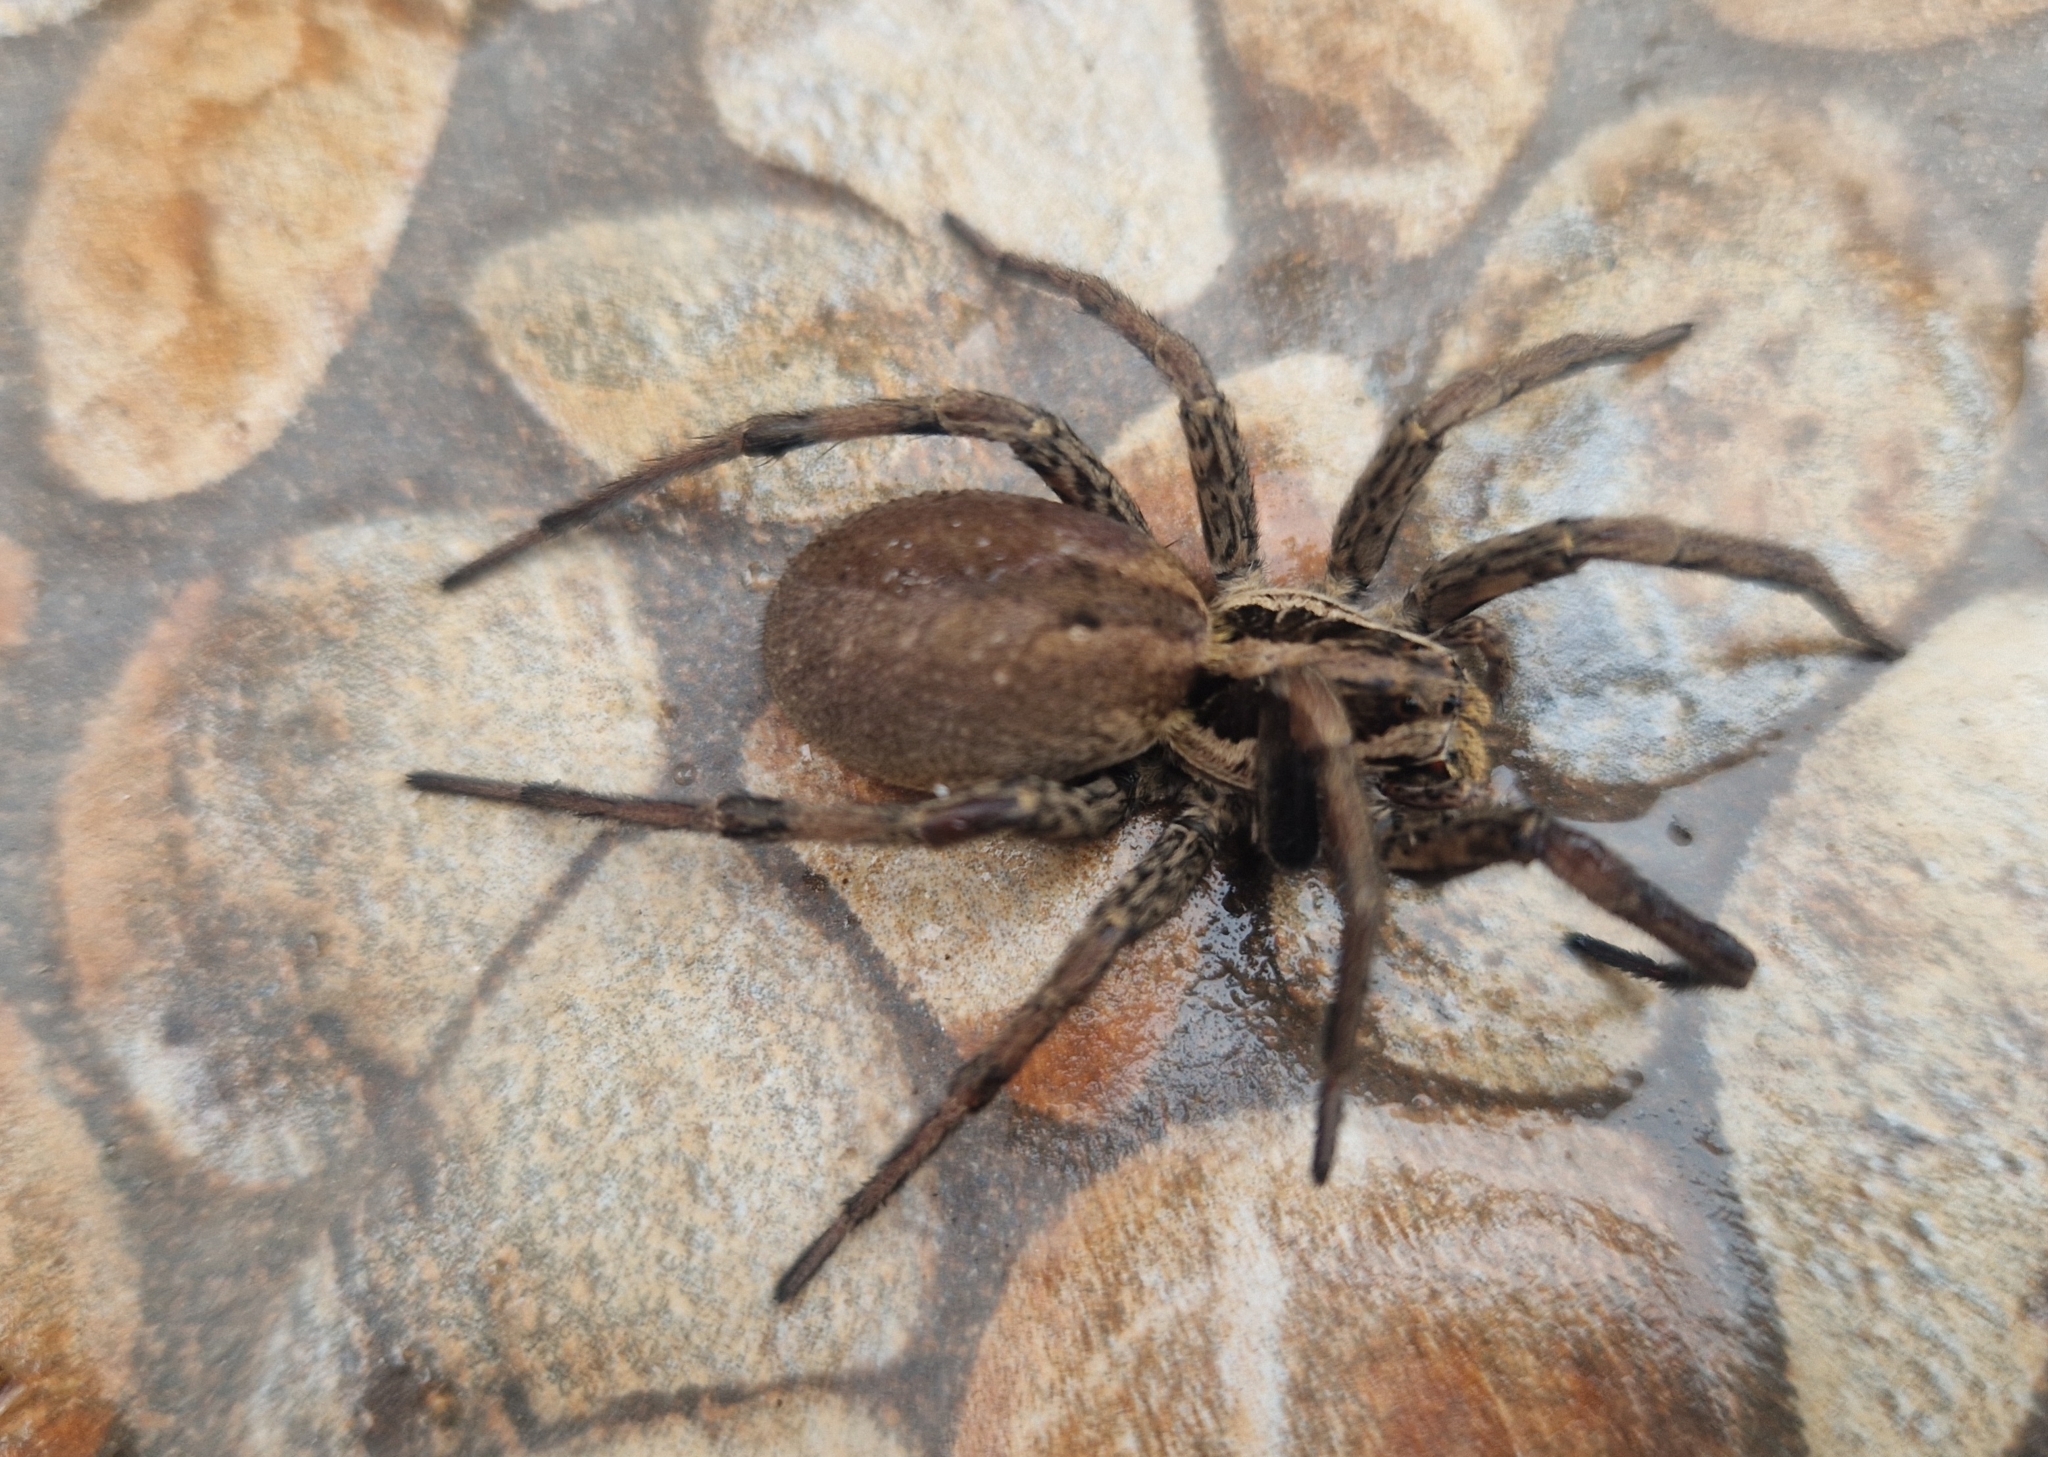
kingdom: Animalia
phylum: Arthropoda
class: Arachnida
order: Araneae
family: Lycosidae
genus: Hogna
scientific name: Hogna radiata
